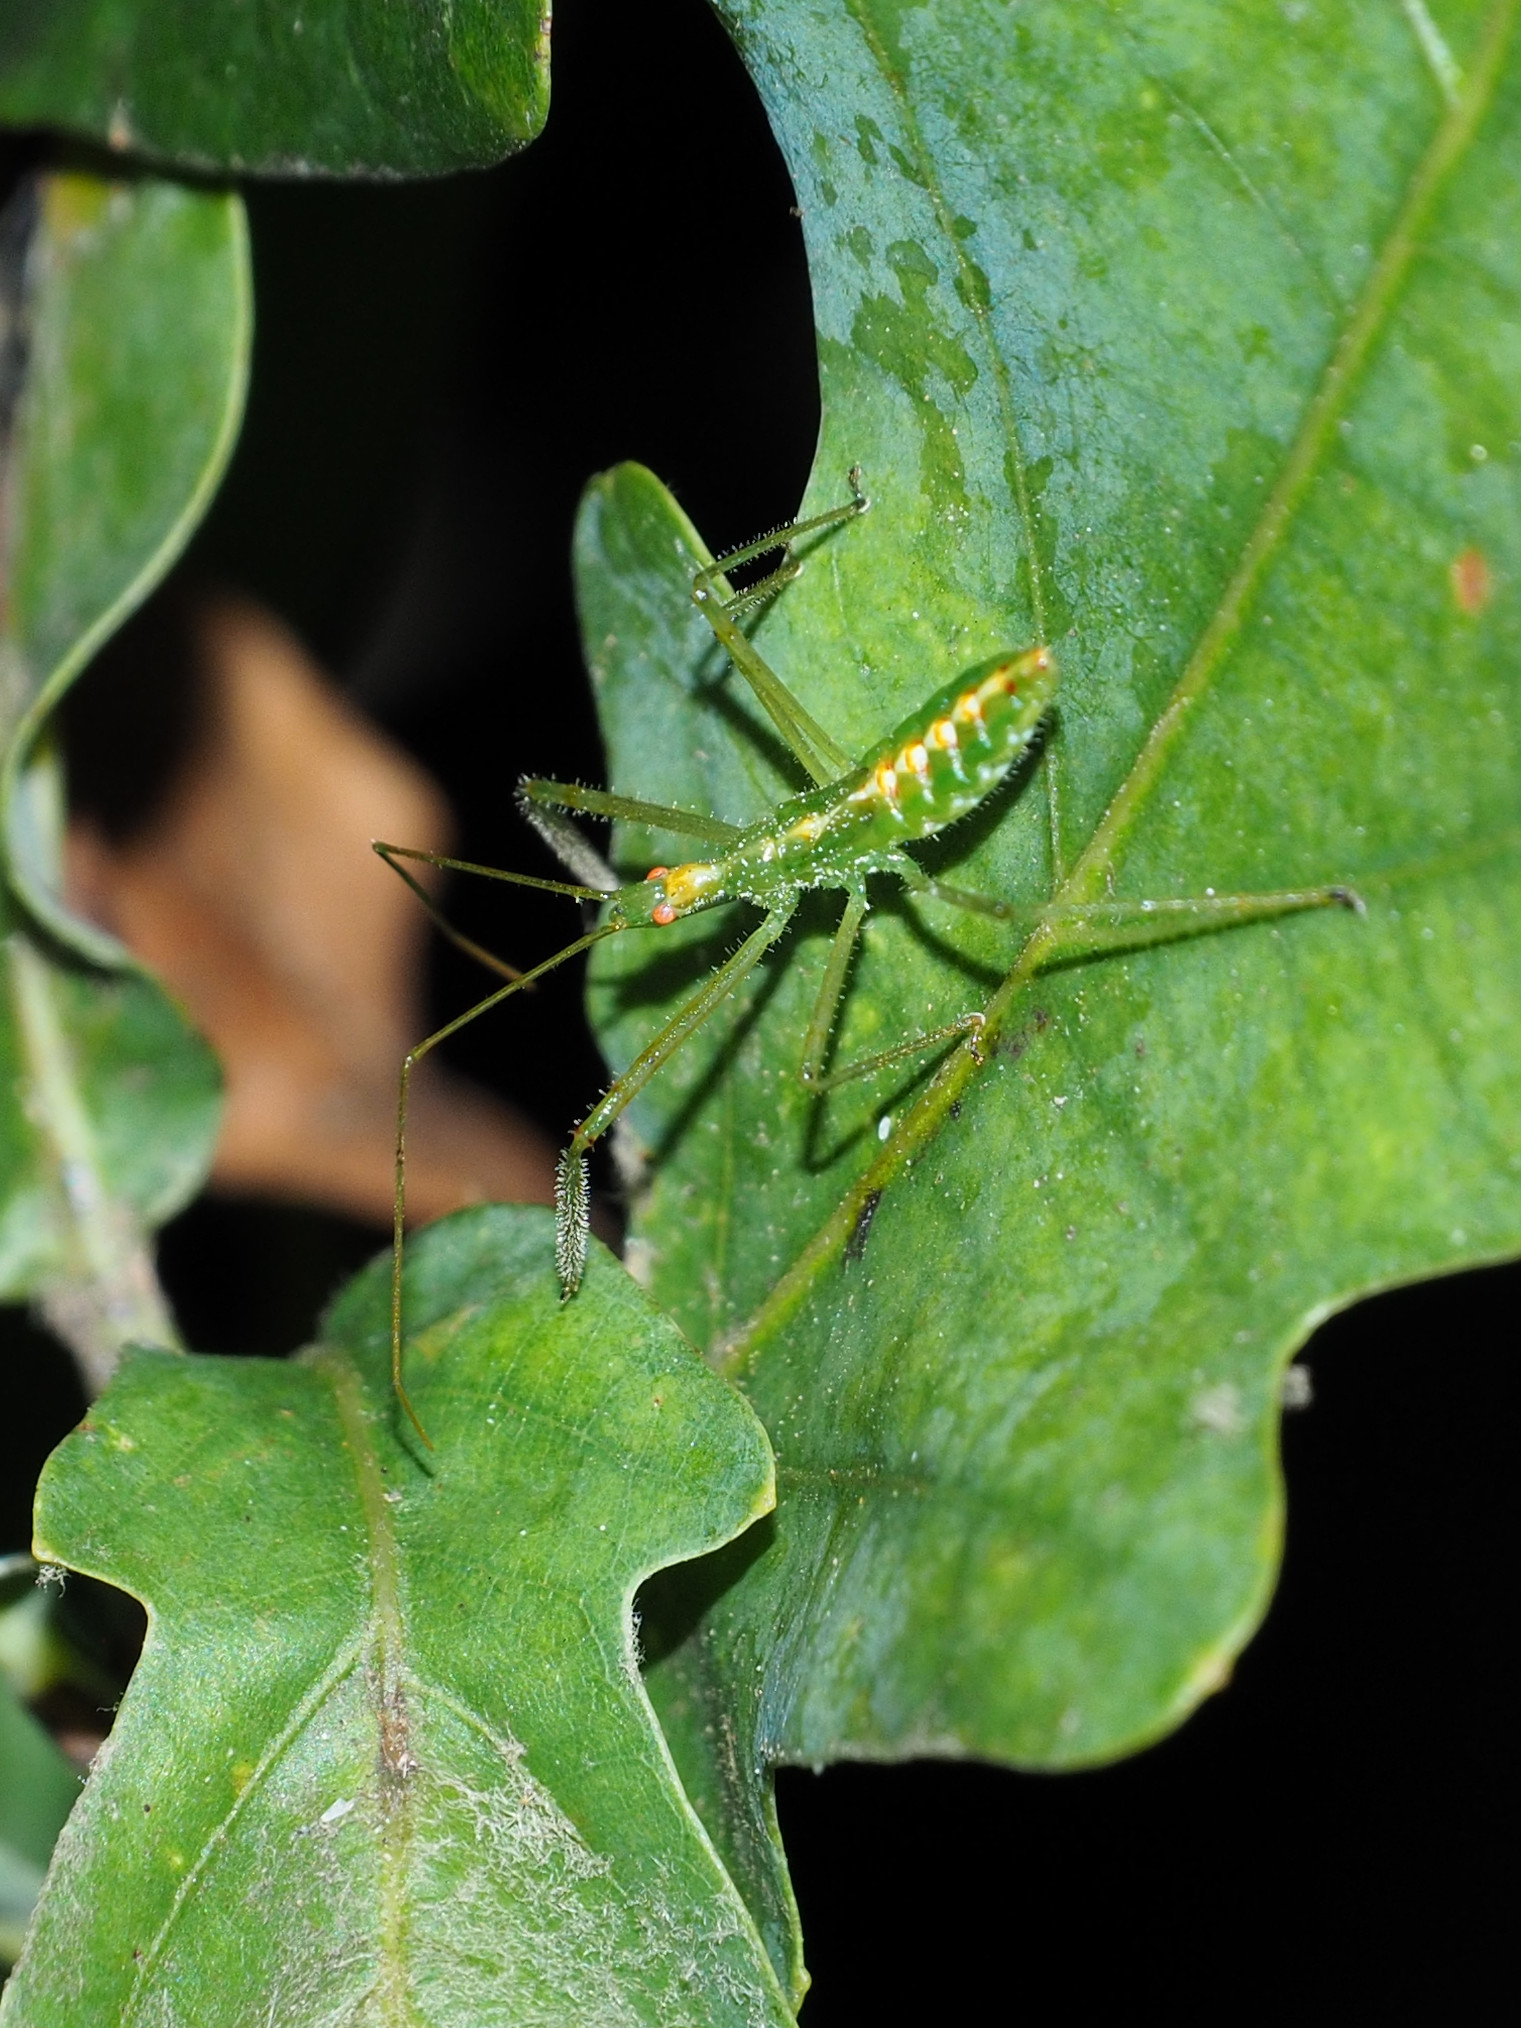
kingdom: Animalia
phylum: Arthropoda
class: Insecta
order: Hemiptera
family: Reduviidae
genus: Zelus
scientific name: Zelus luridus
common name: Pale green assassin bug
